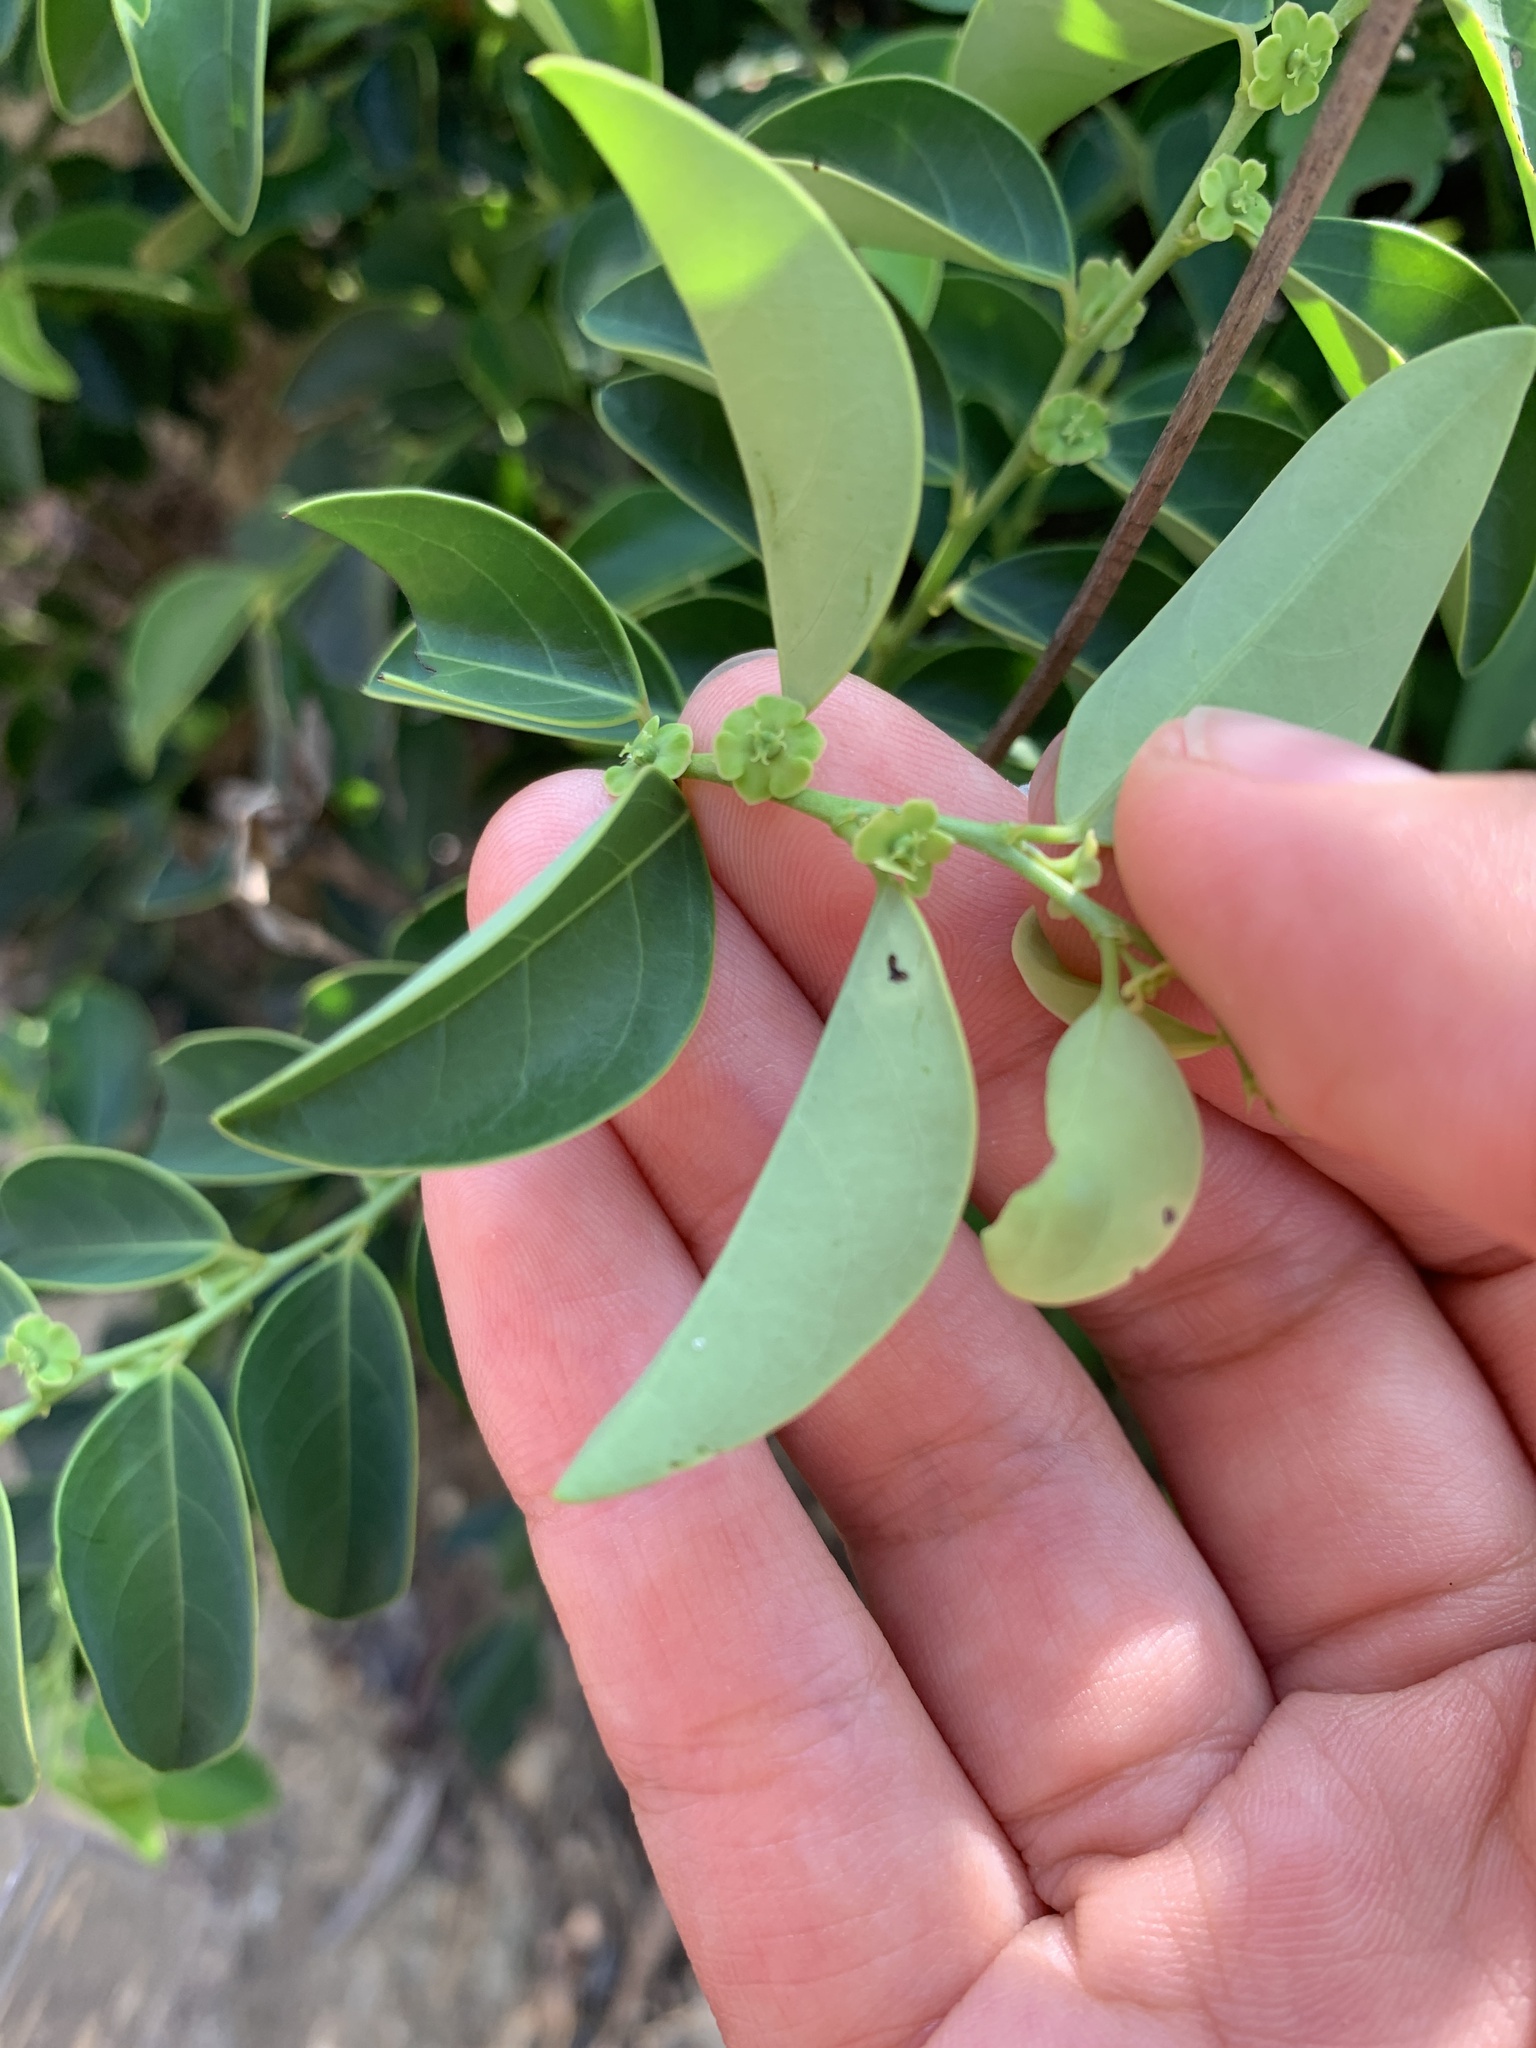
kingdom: Plantae
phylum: Tracheophyta
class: Magnoliopsida
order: Malpighiales
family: Phyllanthaceae
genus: Breynia
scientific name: Breynia fruticosa
